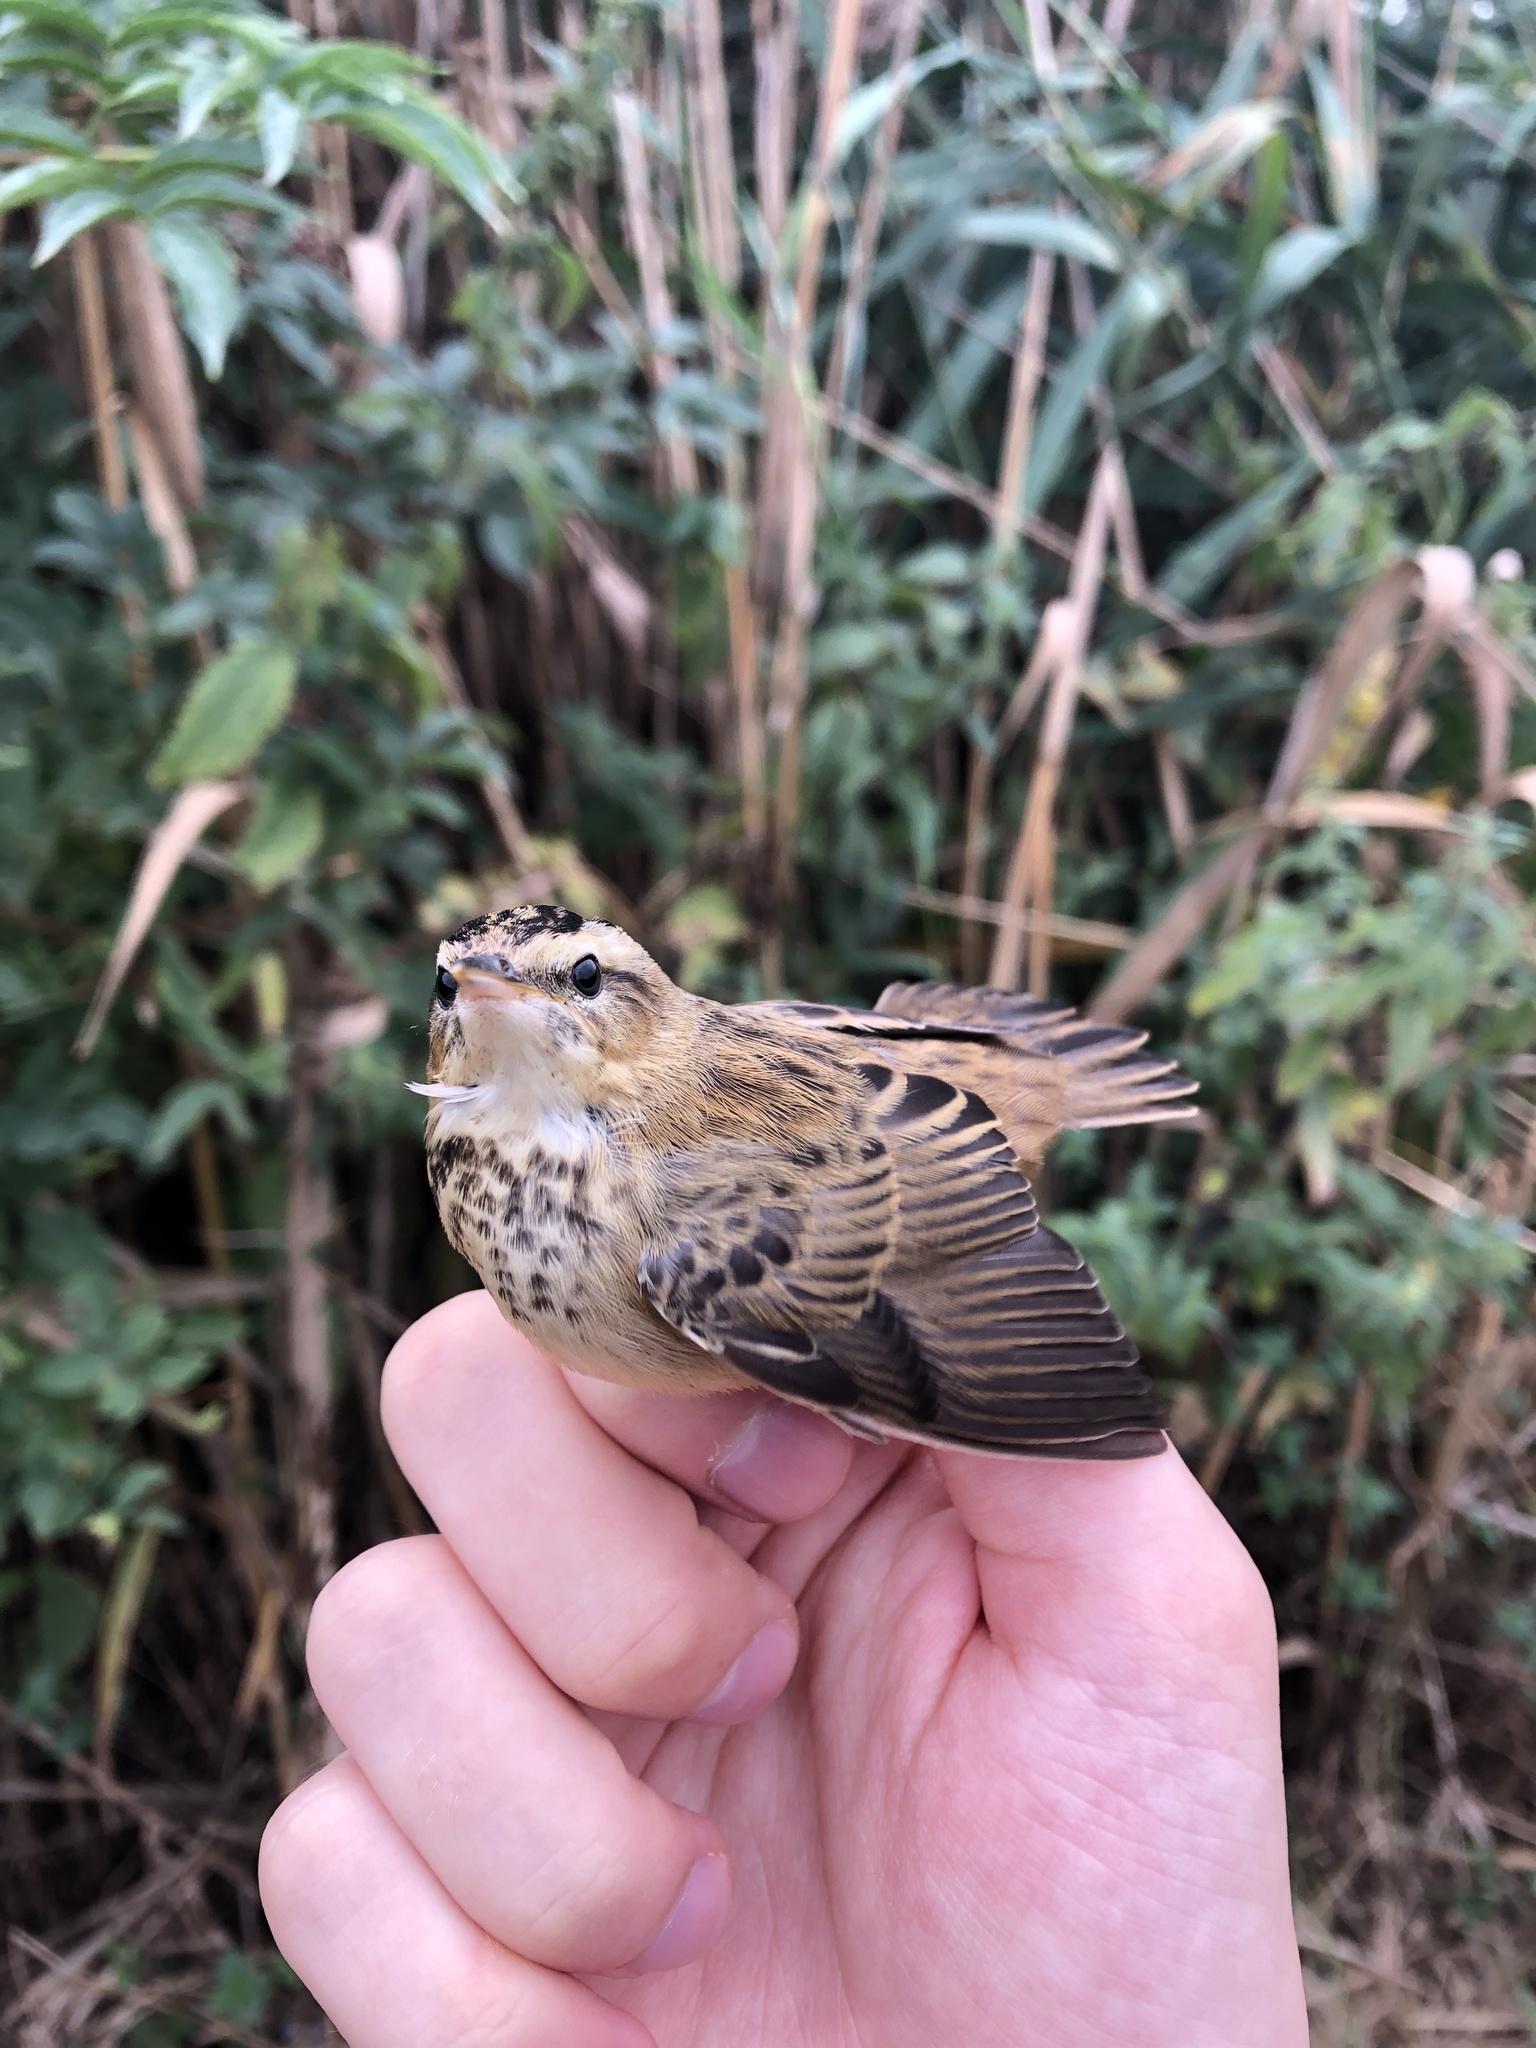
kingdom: Animalia
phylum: Chordata
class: Aves
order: Passeriformes
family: Acrocephalidae
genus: Acrocephalus
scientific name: Acrocephalus schoenobaenus
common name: Sedge warbler
